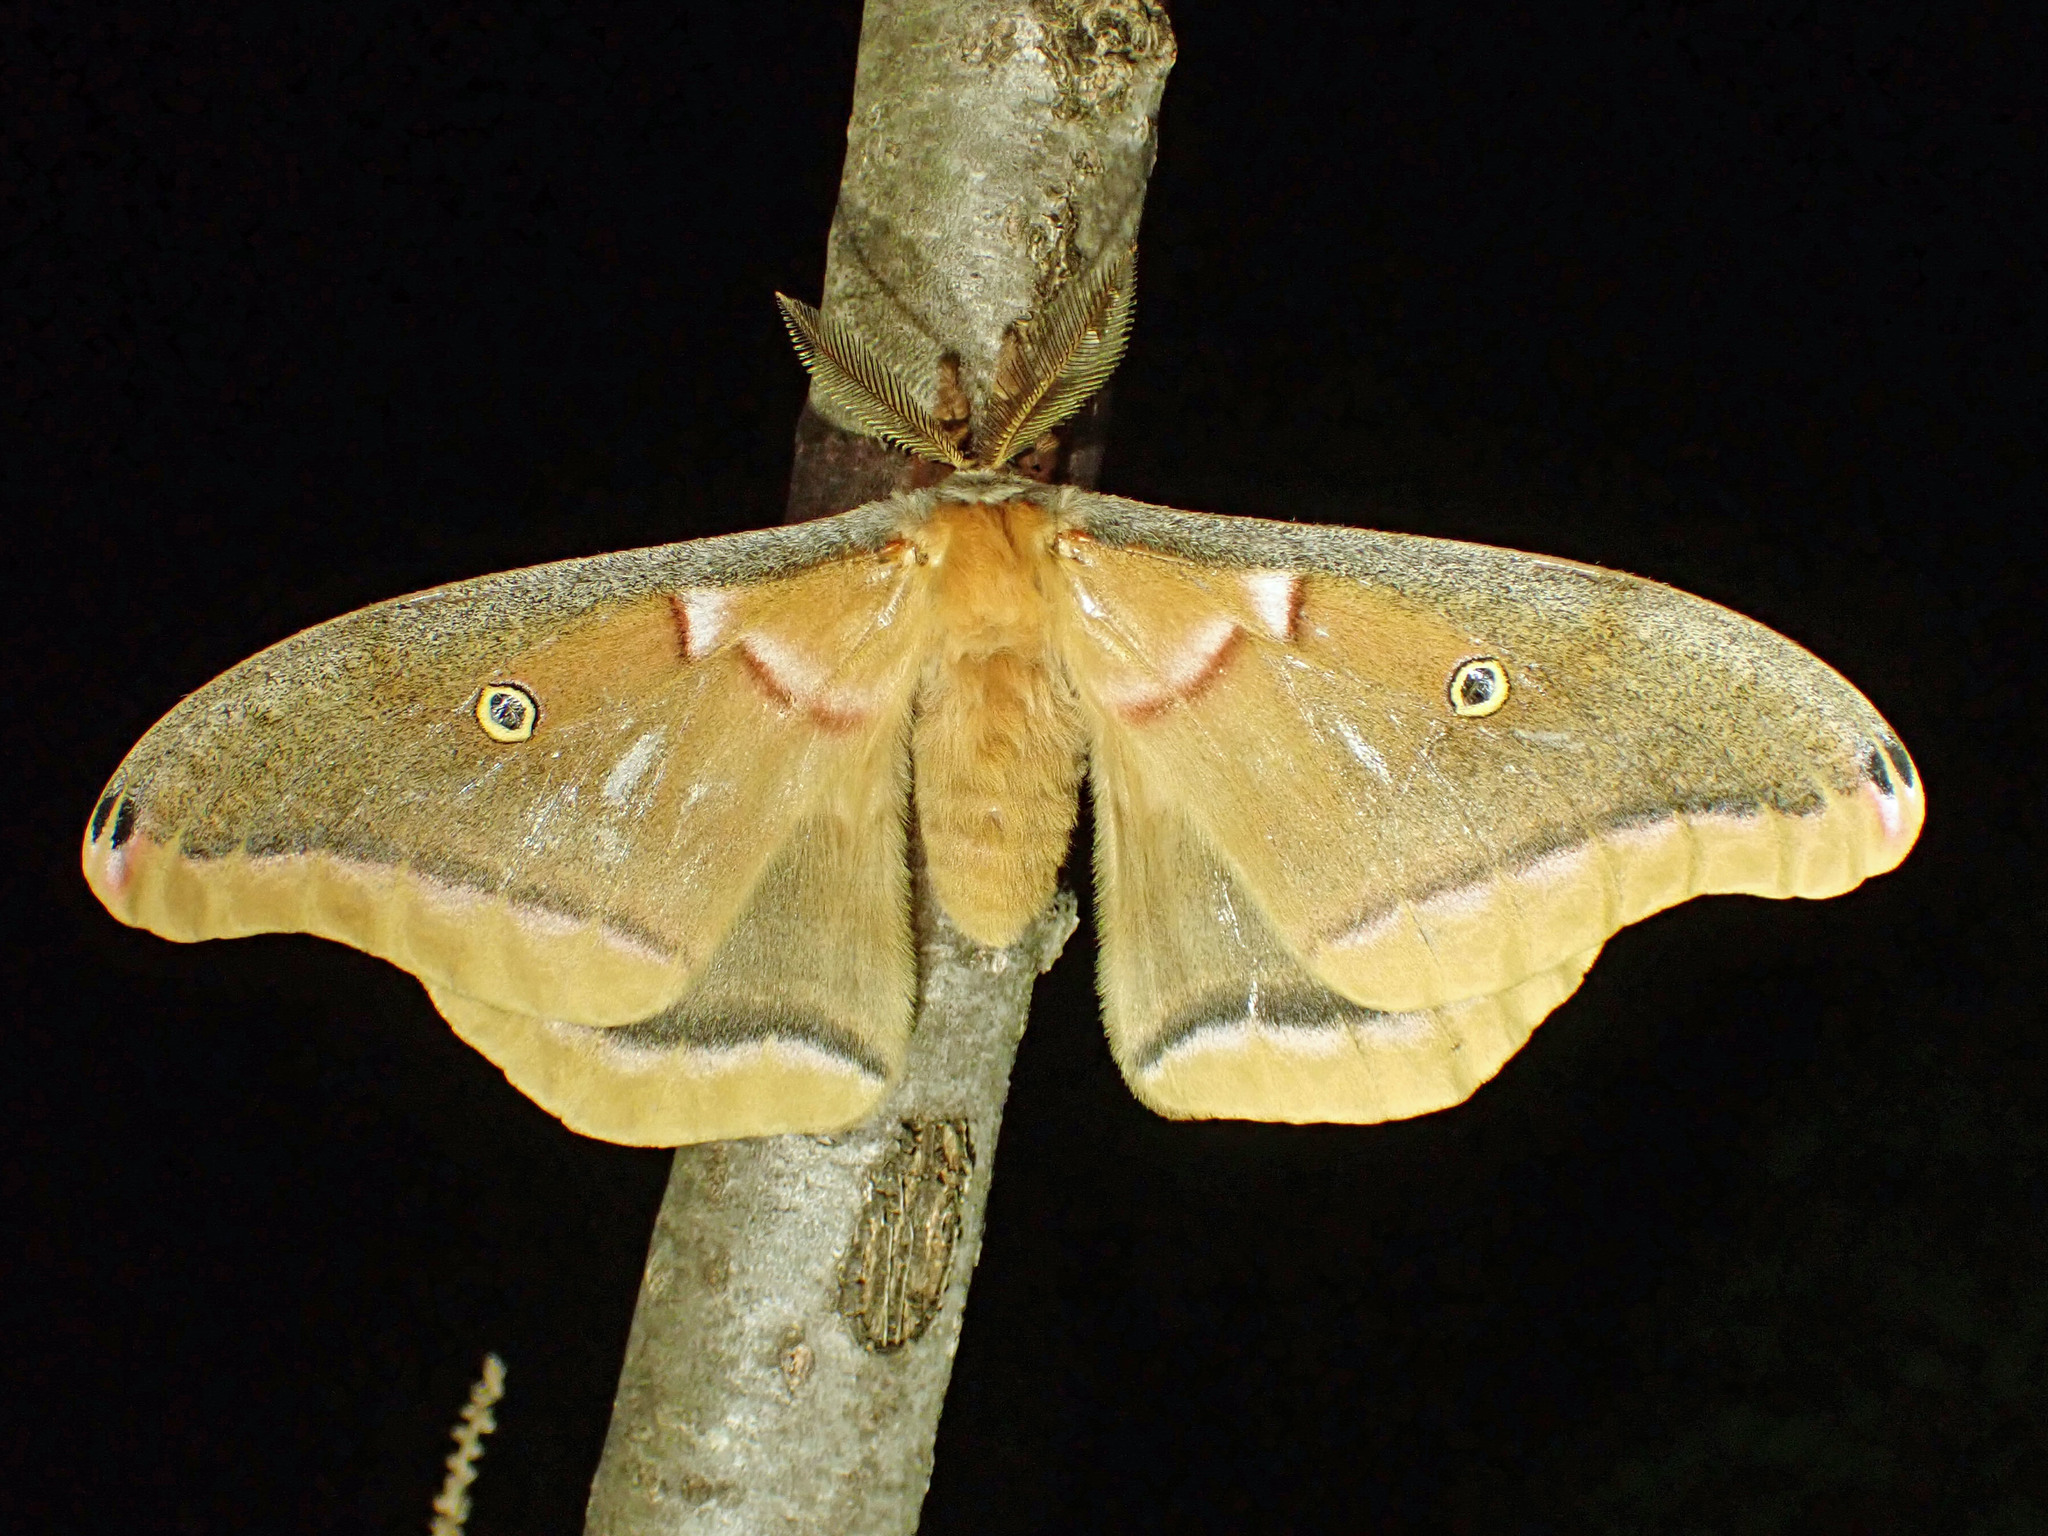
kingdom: Animalia
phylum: Arthropoda
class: Insecta
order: Lepidoptera
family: Saturniidae
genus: Antheraea
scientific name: Antheraea polyphemus
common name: Polyphemus moth
